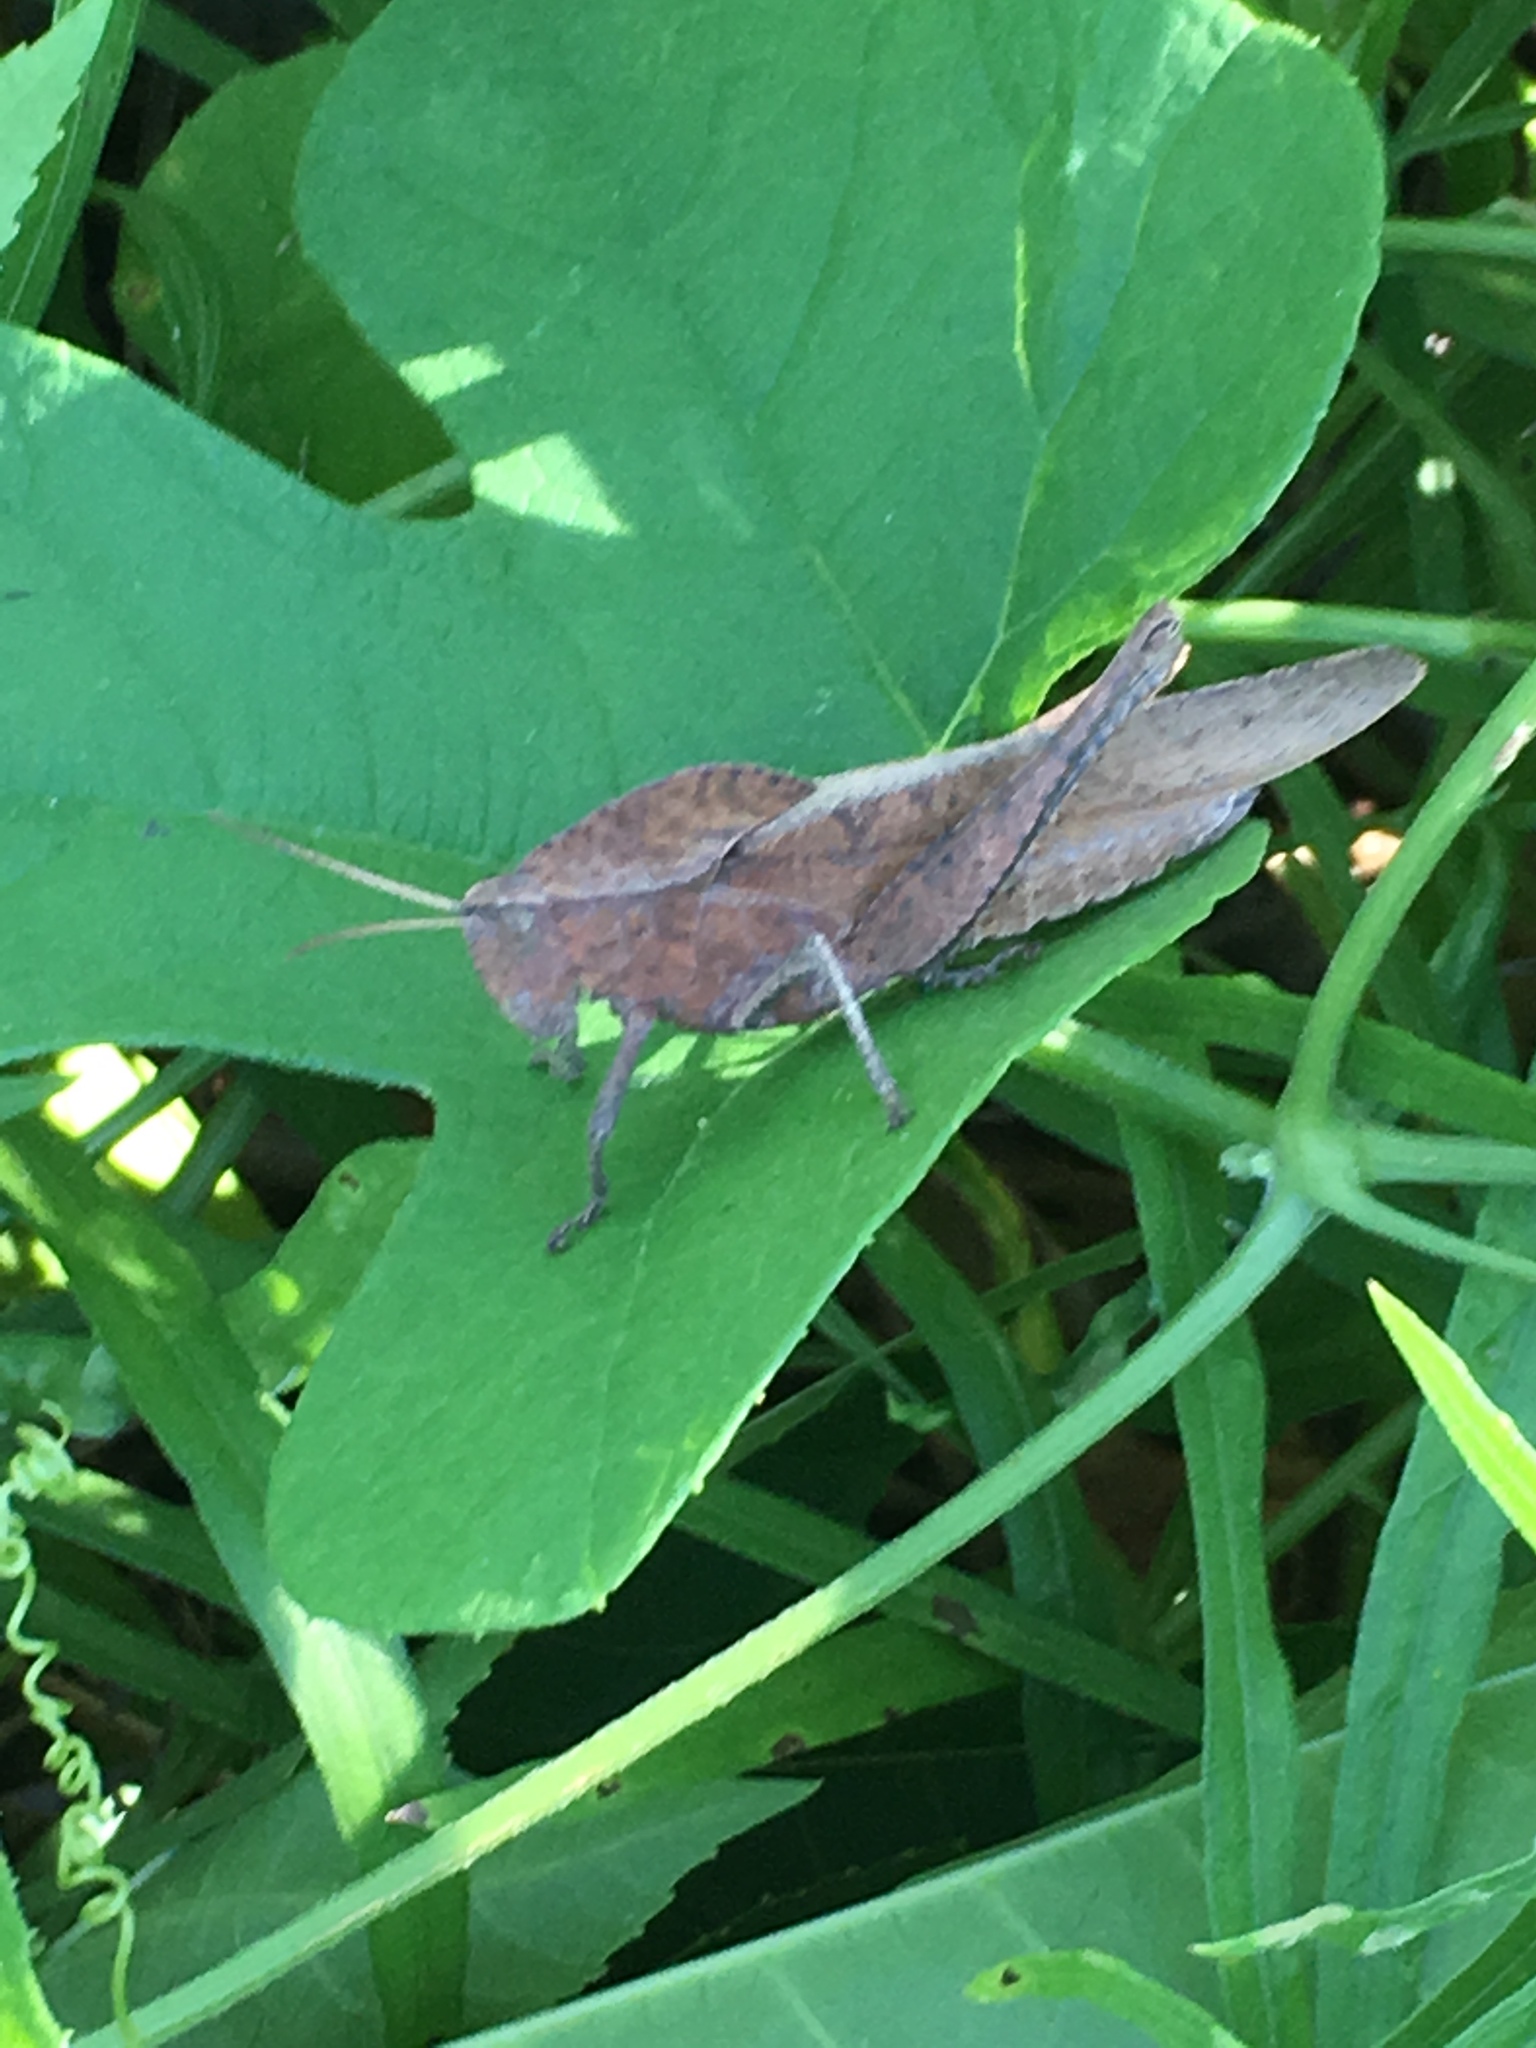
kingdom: Animalia
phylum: Arthropoda
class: Insecta
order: Orthoptera
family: Romaleidae
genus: Xyleus
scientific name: Xyleus discoideus
